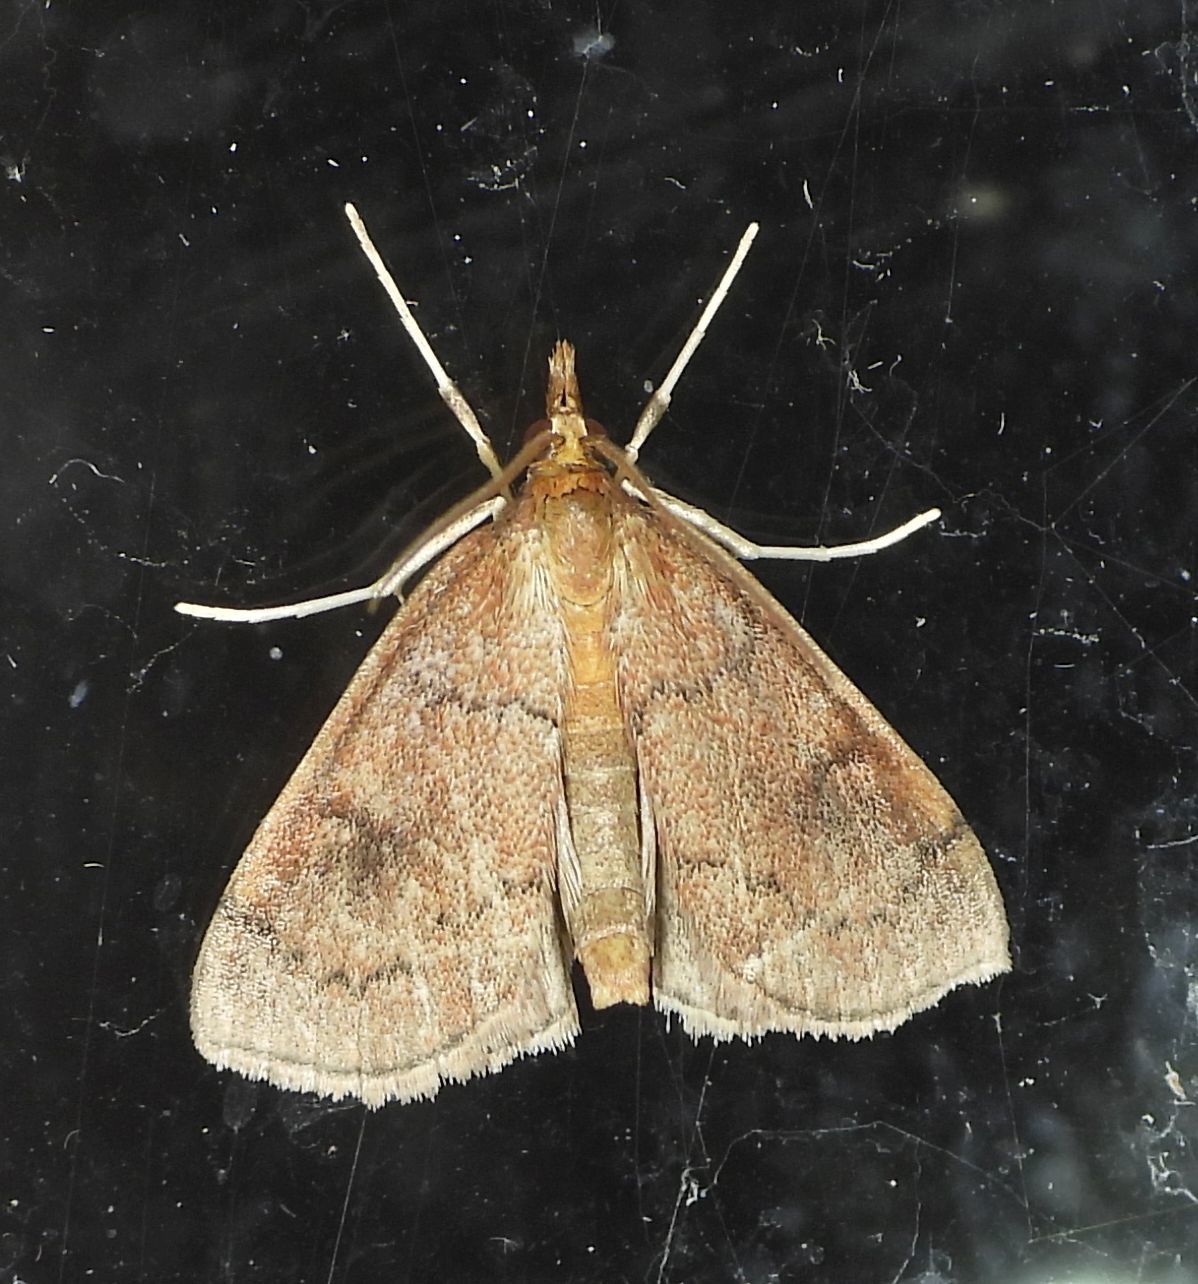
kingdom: Animalia
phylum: Arthropoda
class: Insecta
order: Lepidoptera
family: Crambidae
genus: Fumibotys
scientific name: Fumibotys fumalis
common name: Mint root borer moth
